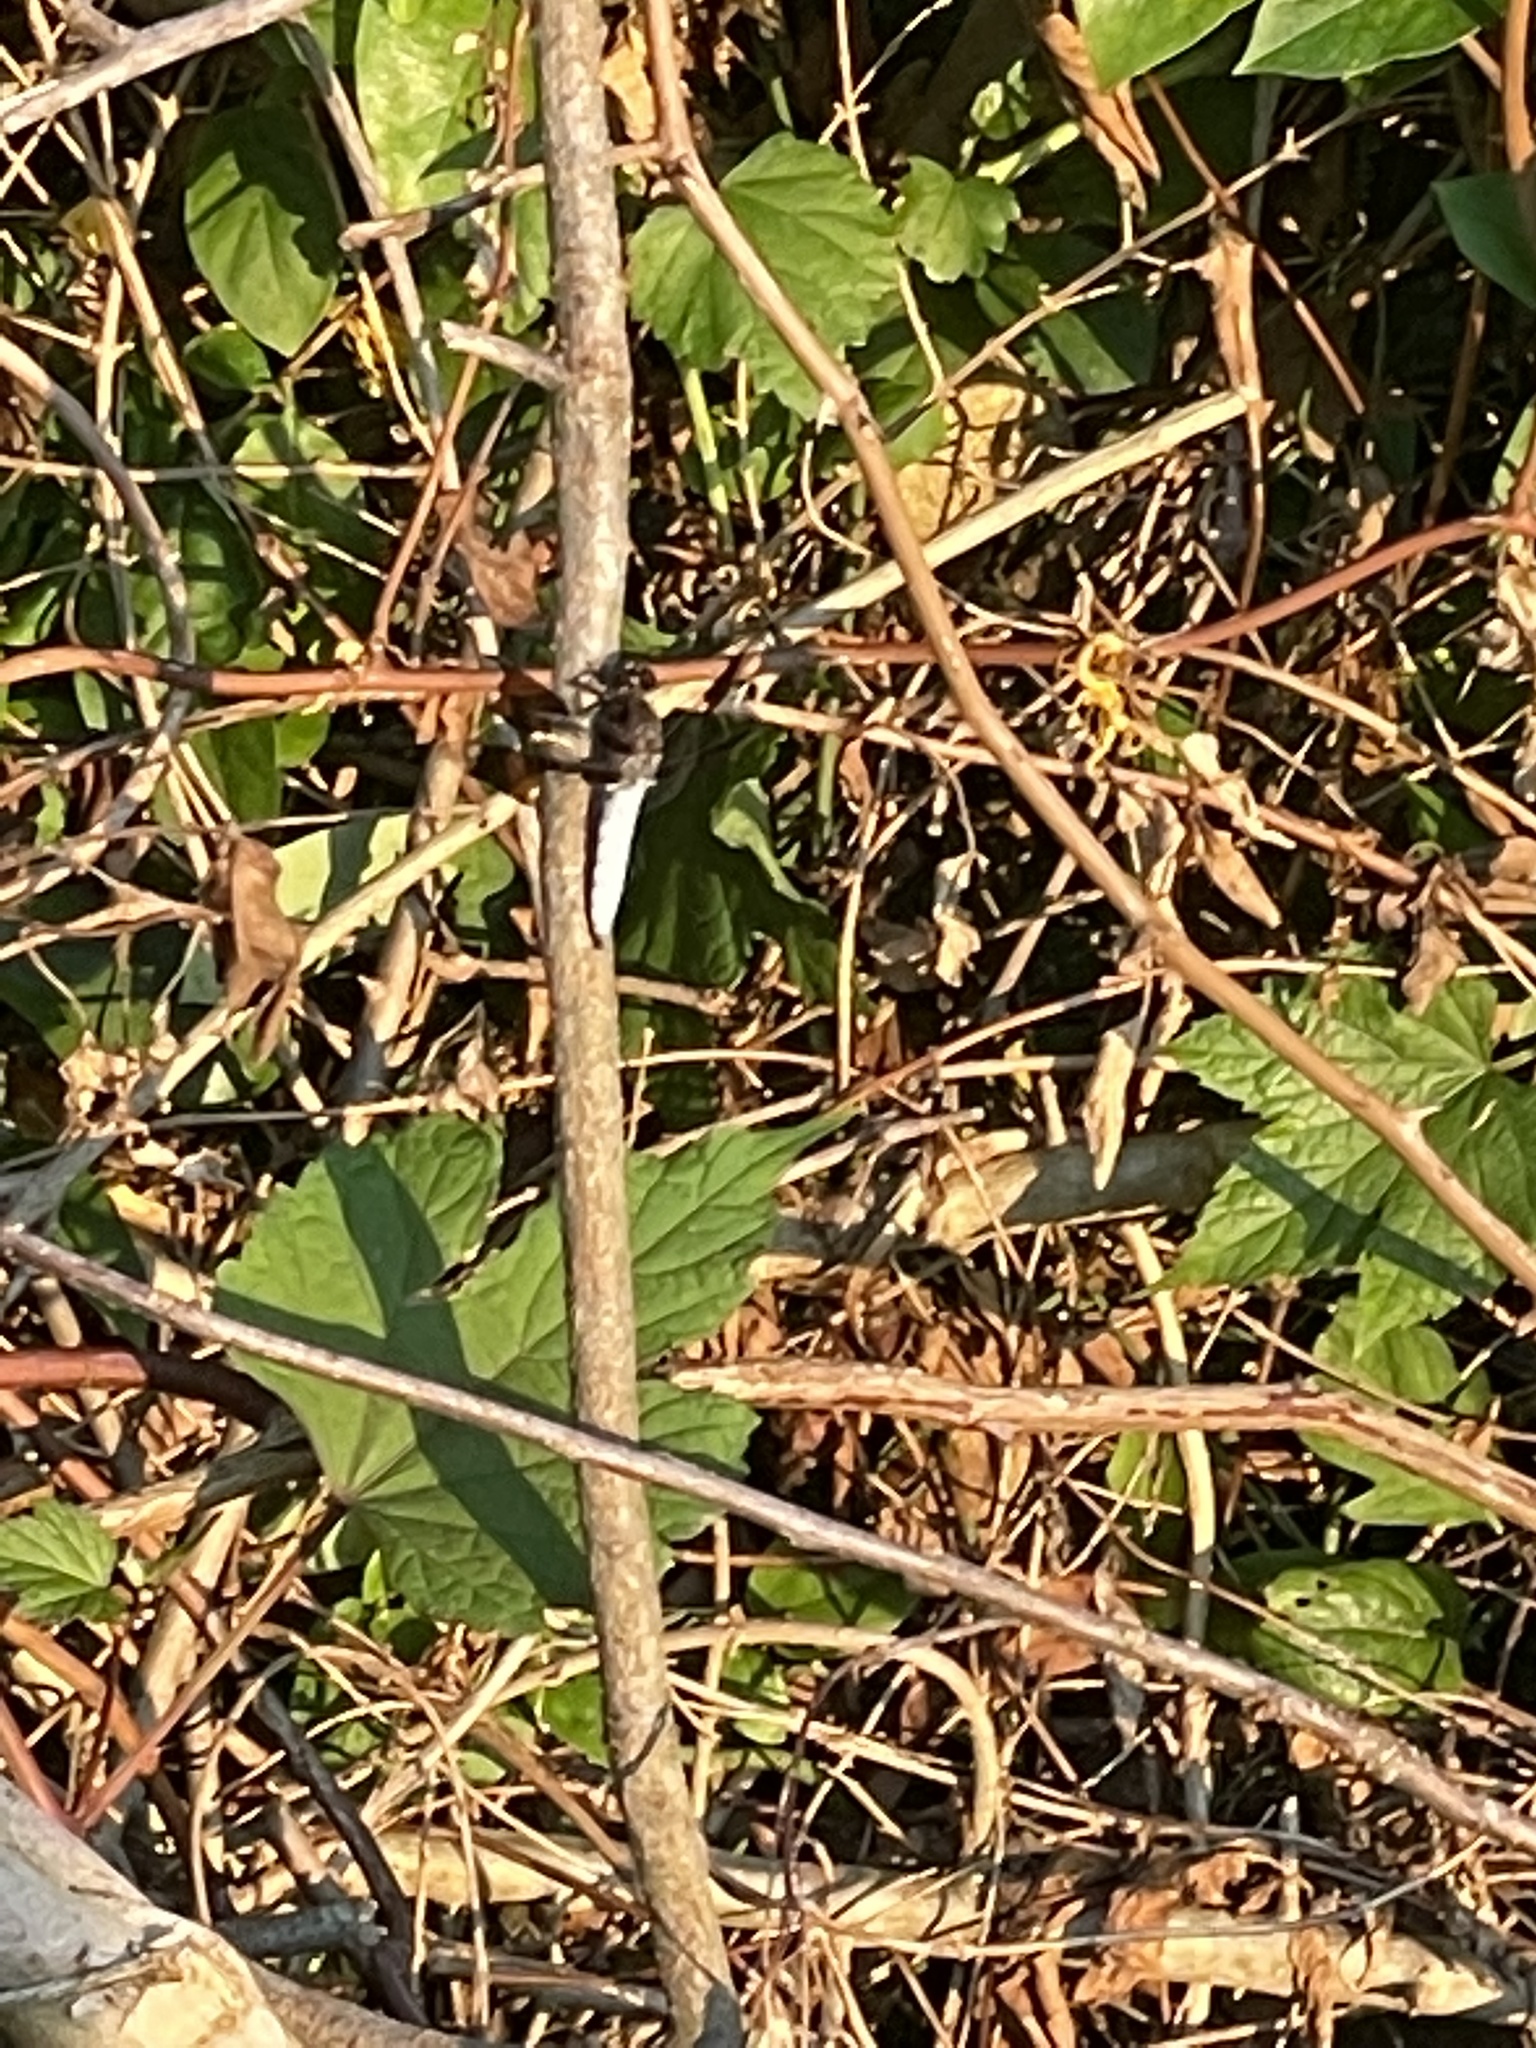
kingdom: Animalia
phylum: Arthropoda
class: Insecta
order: Odonata
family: Libellulidae
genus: Plathemis
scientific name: Plathemis lydia
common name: Common whitetail
